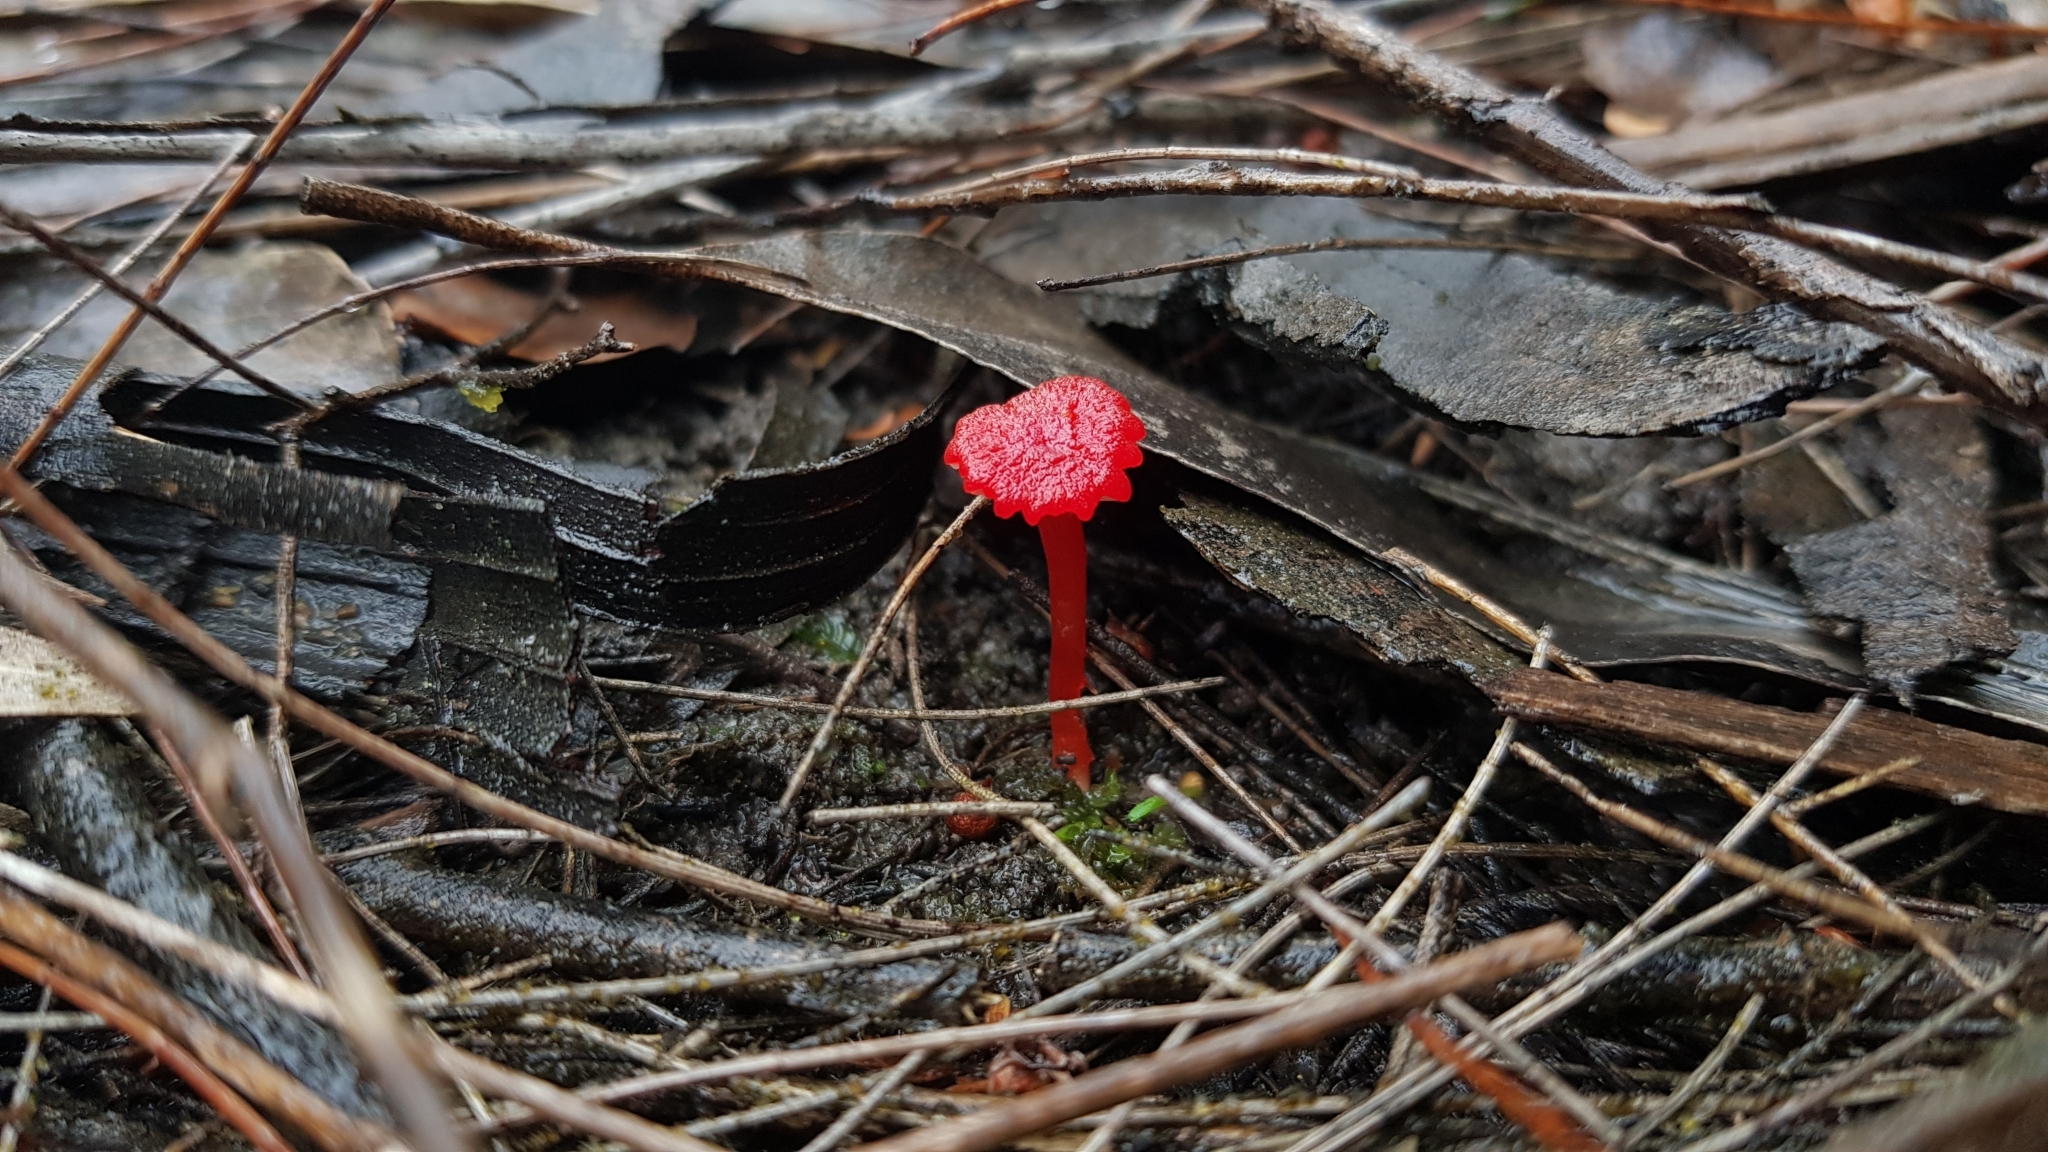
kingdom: Fungi
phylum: Basidiomycota
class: Agaricomycetes
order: Agaricales
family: Hygrophoraceae
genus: Hygrocybe
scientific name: Hygrocybe miniata
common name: Vermilion waxcap
